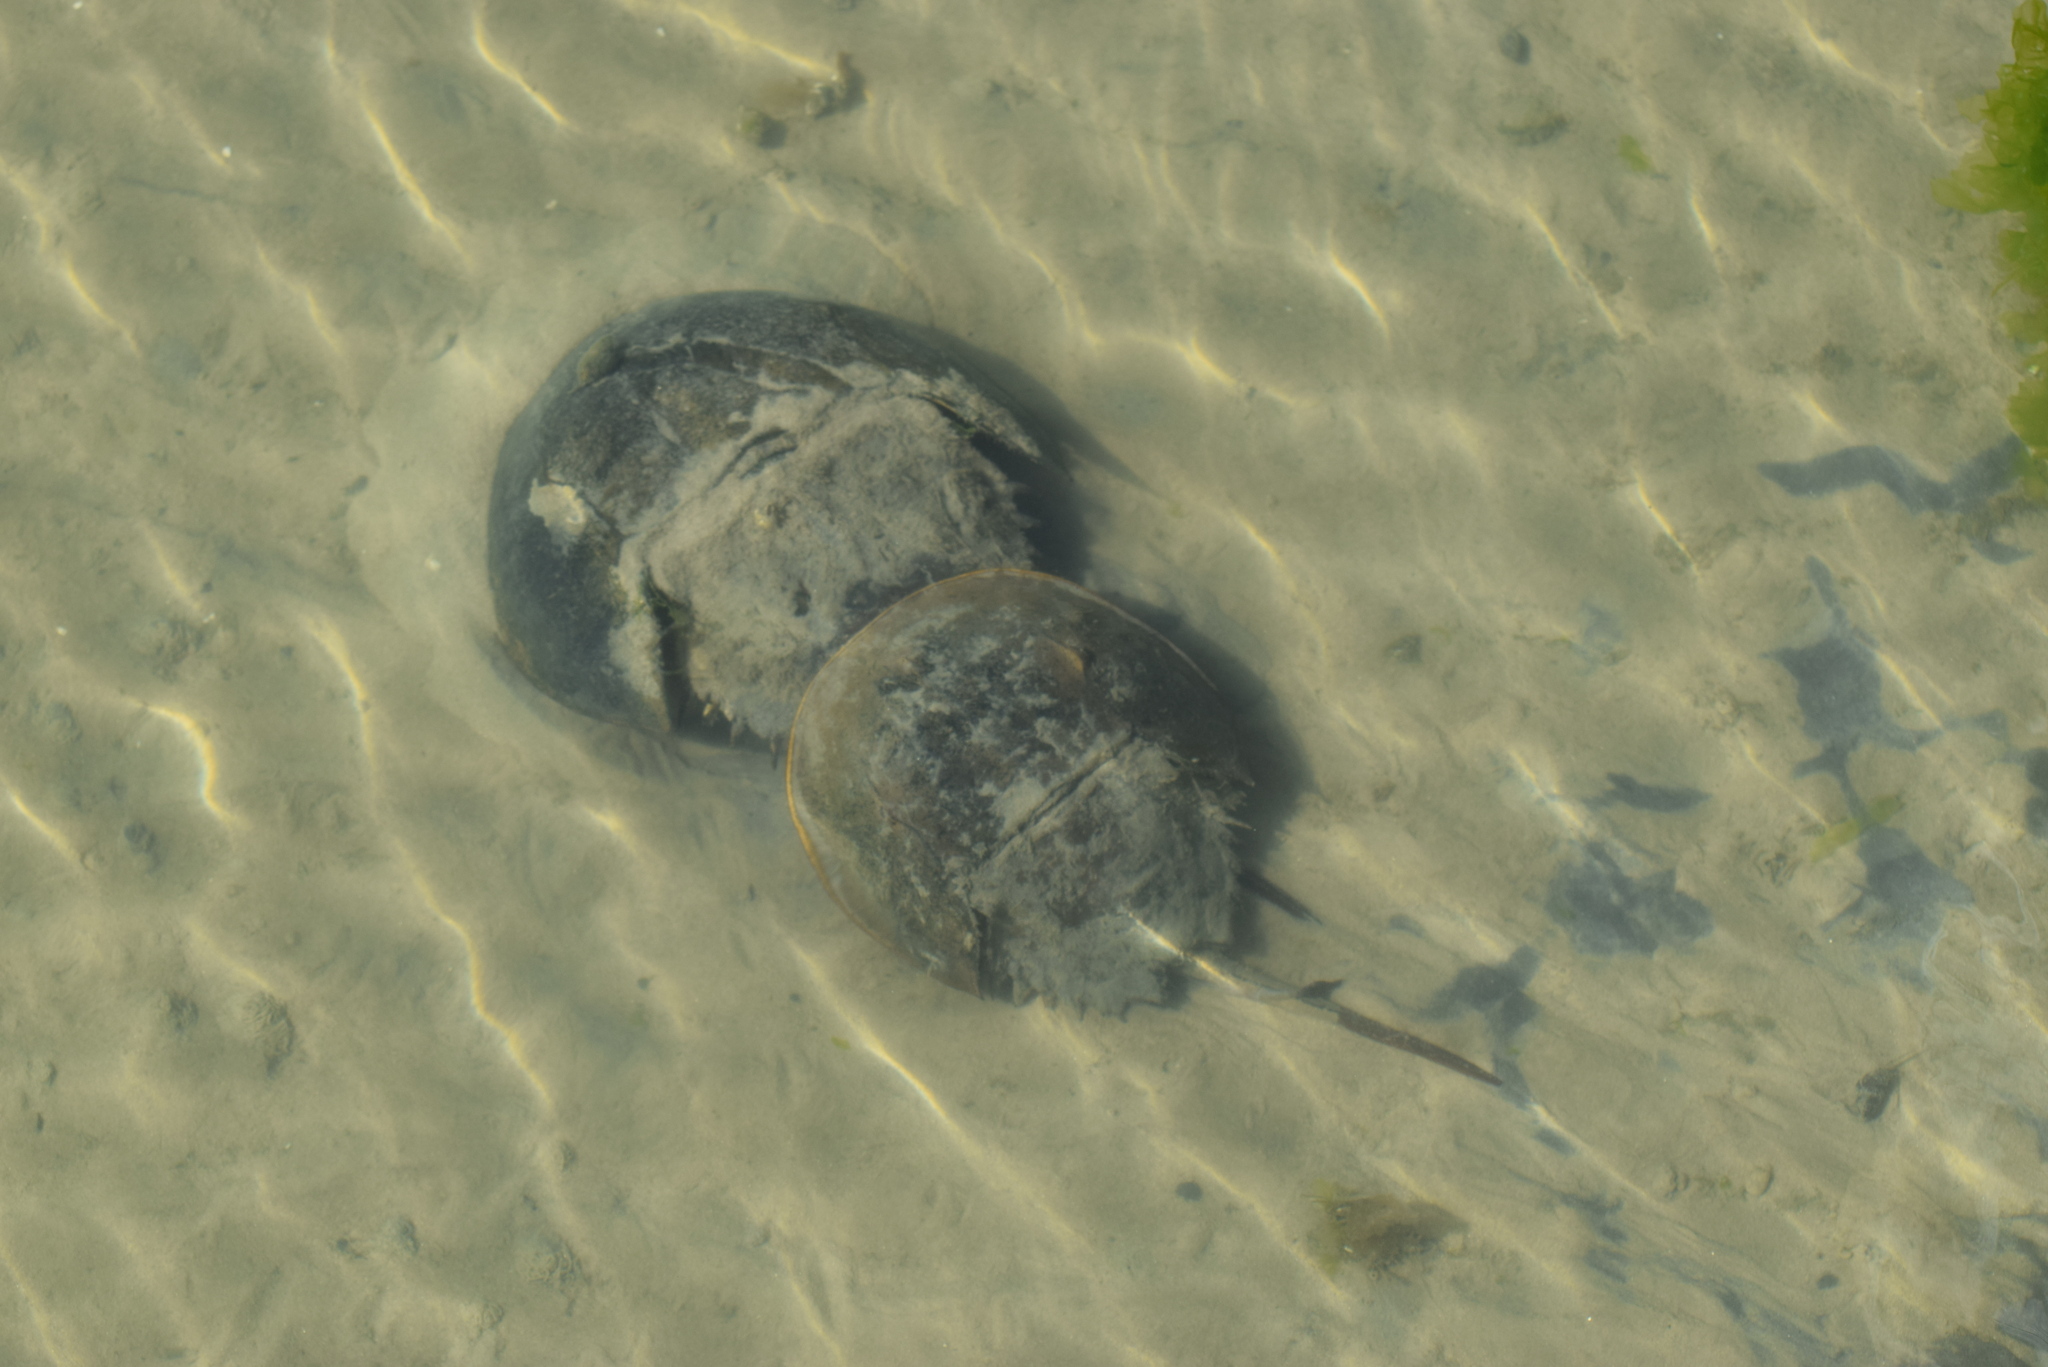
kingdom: Animalia
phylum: Arthropoda
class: Merostomata
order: Xiphosurida
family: Limulidae
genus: Limulus
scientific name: Limulus polyphemus
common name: Horseshoe crab
